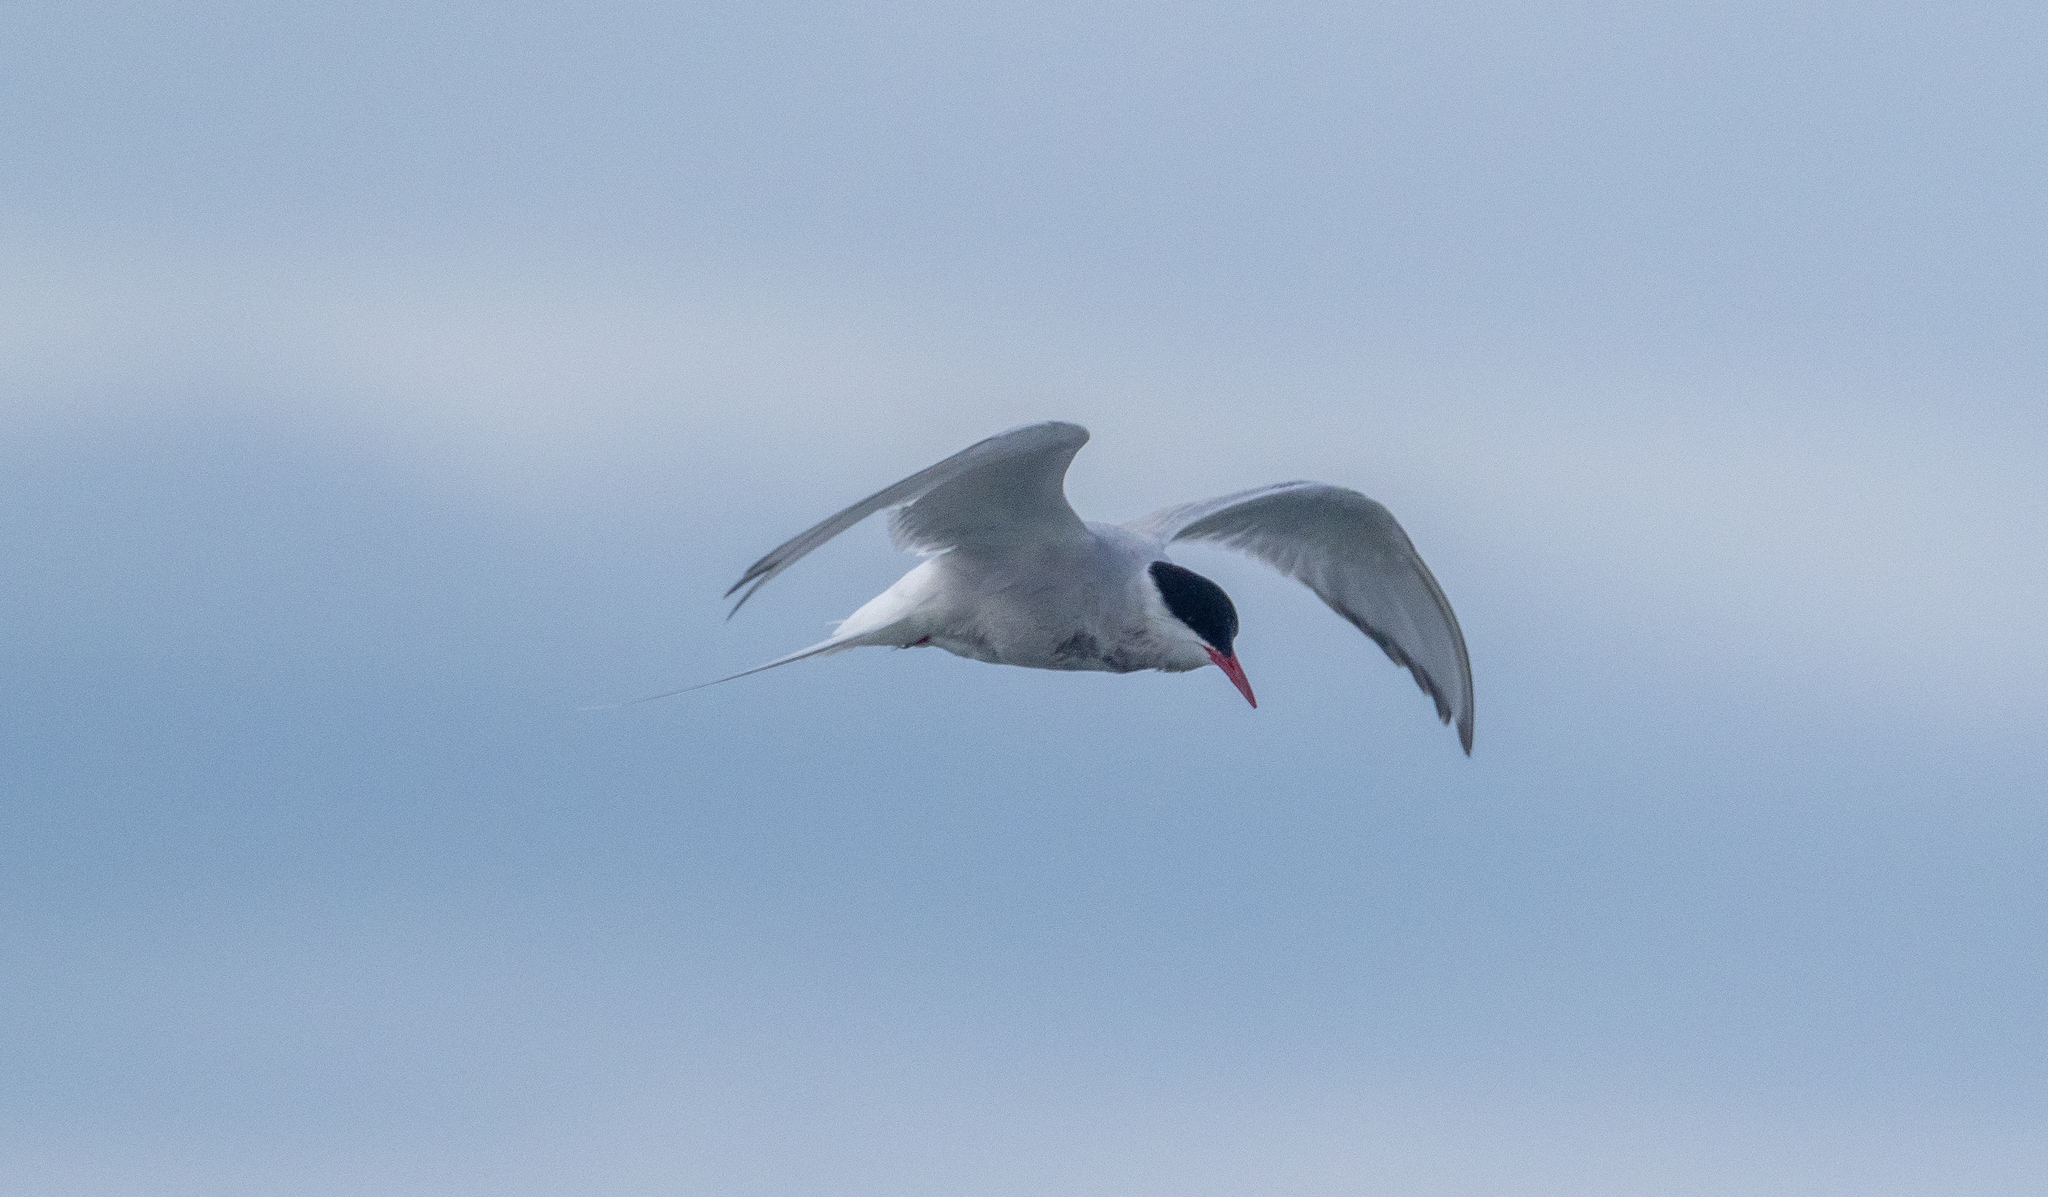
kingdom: Animalia
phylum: Chordata
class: Aves
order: Charadriiformes
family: Laridae
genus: Sterna
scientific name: Sterna paradisaea
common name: Arctic tern
